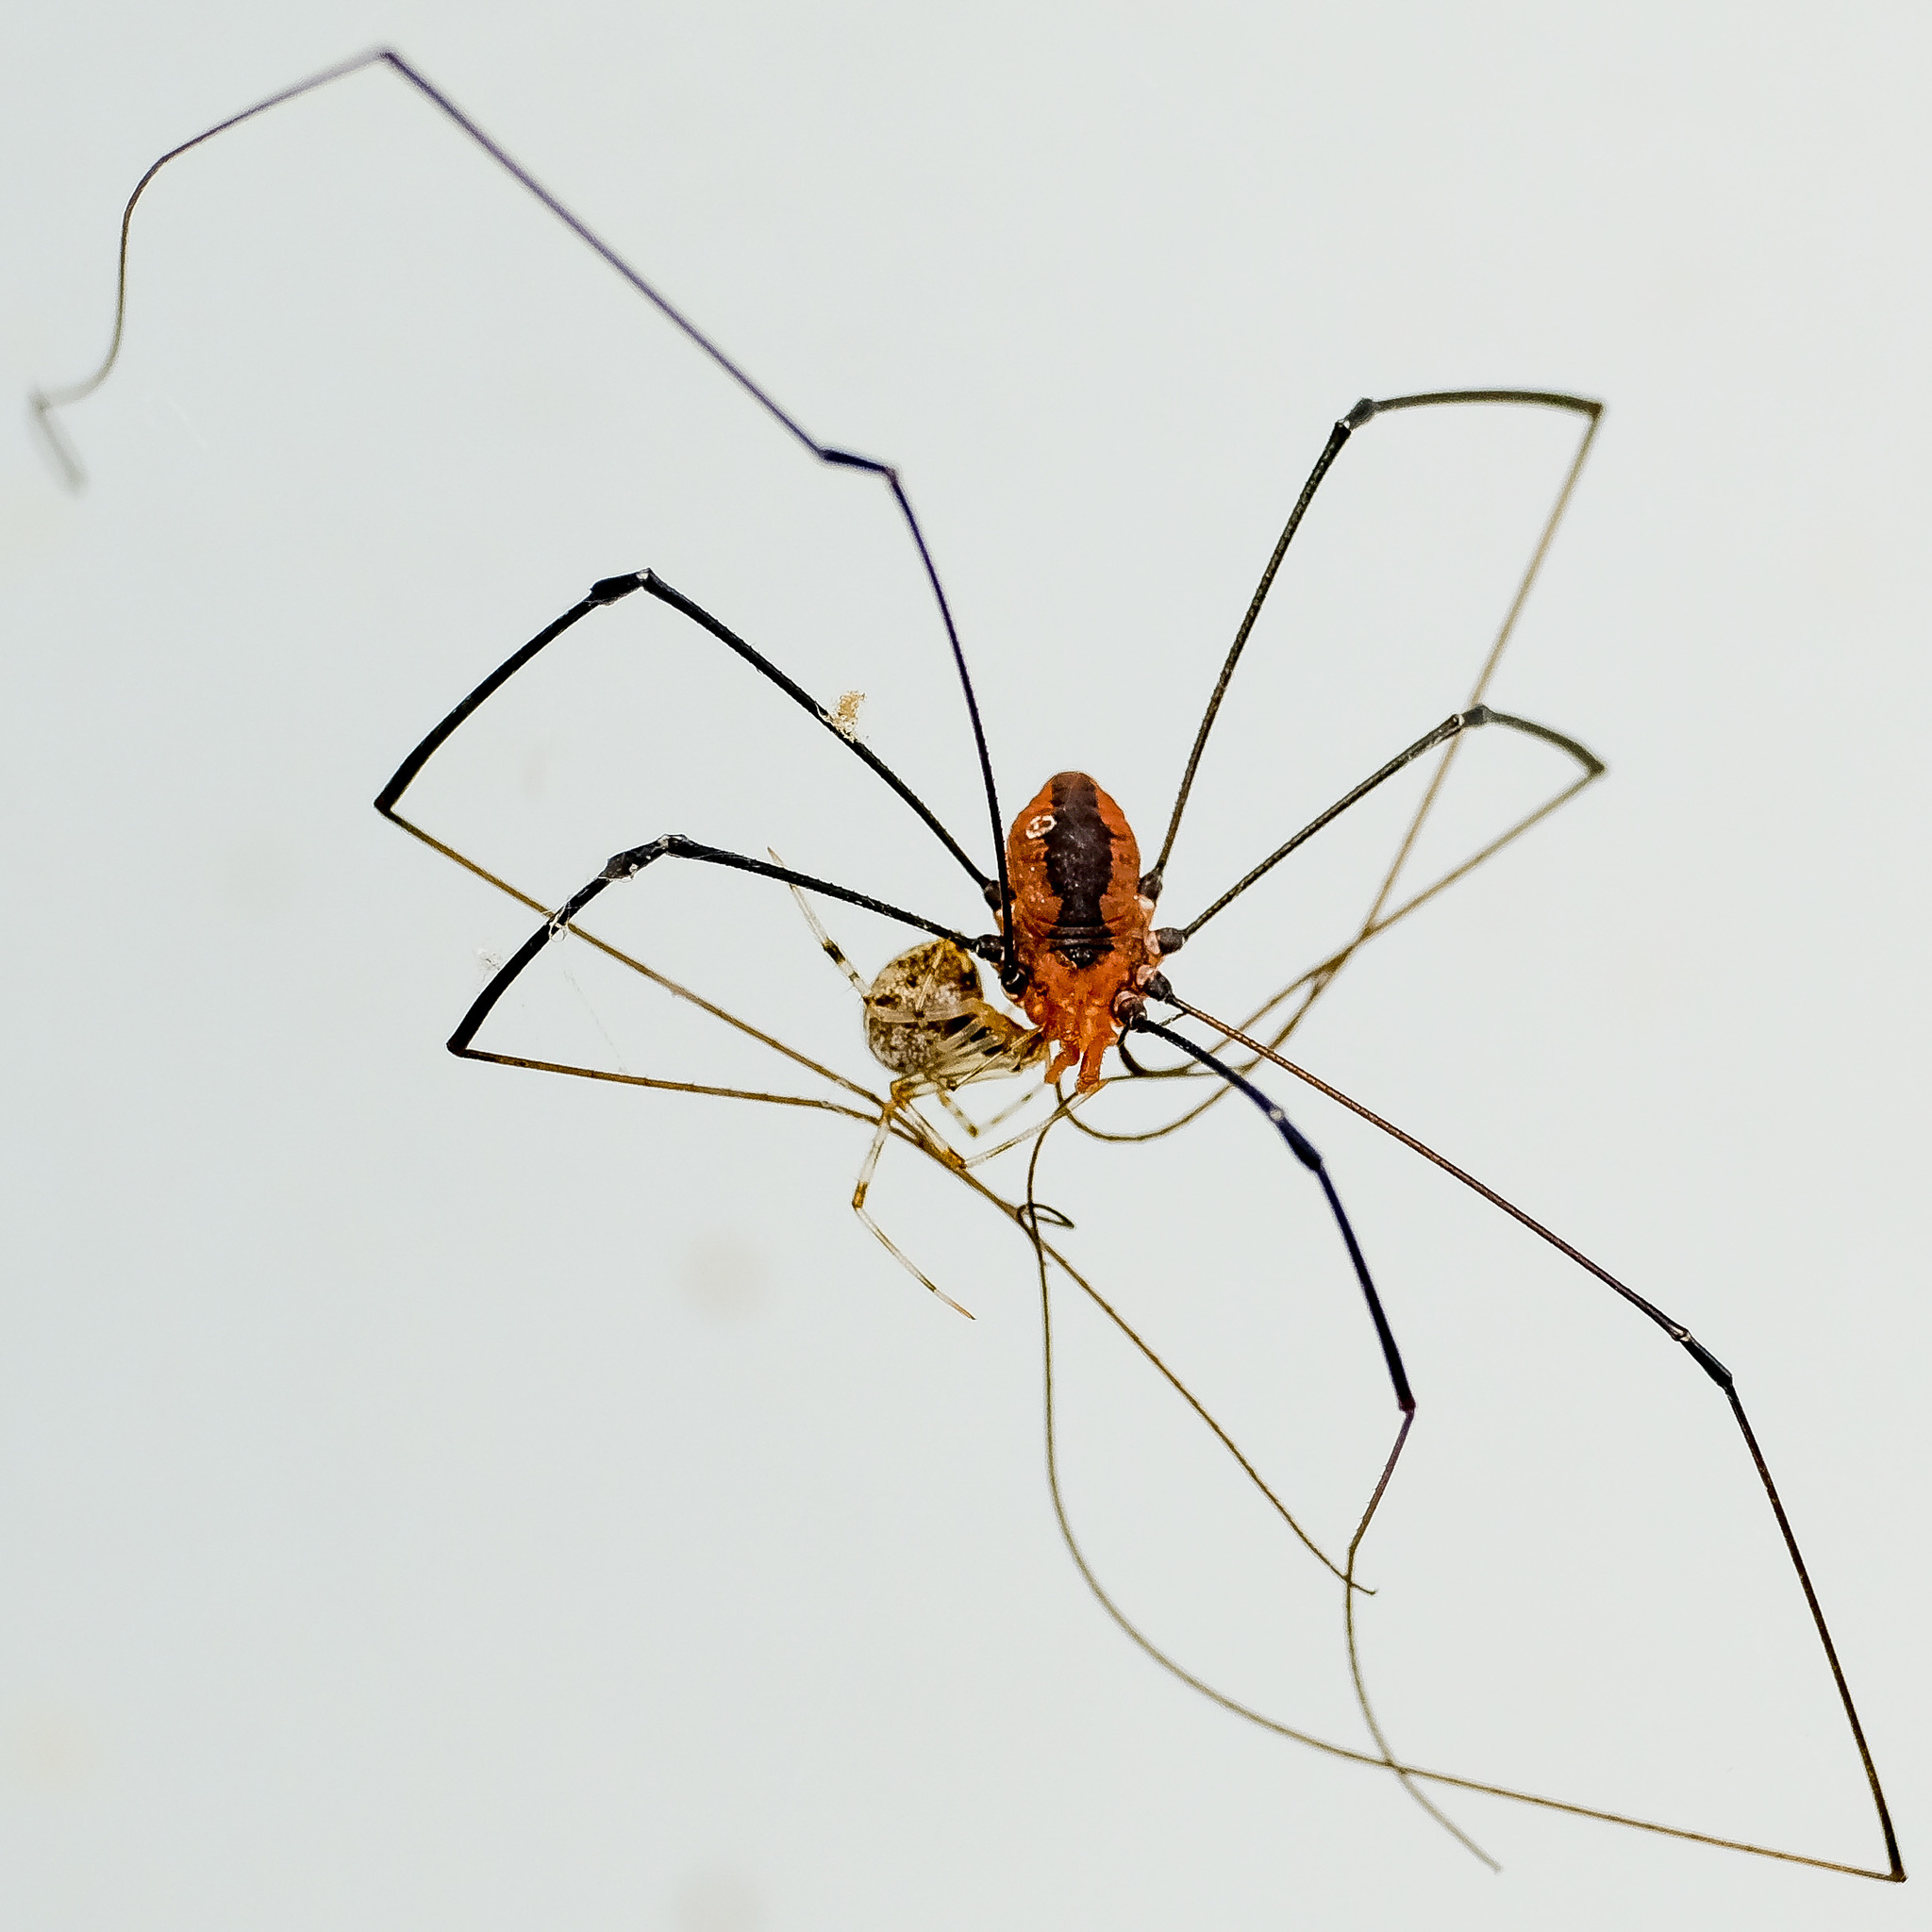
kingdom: Animalia
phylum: Arthropoda
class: Arachnida
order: Araneae
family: Theridiidae
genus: Parasteatoda
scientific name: Parasteatoda tepidariorum
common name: Common house spider
